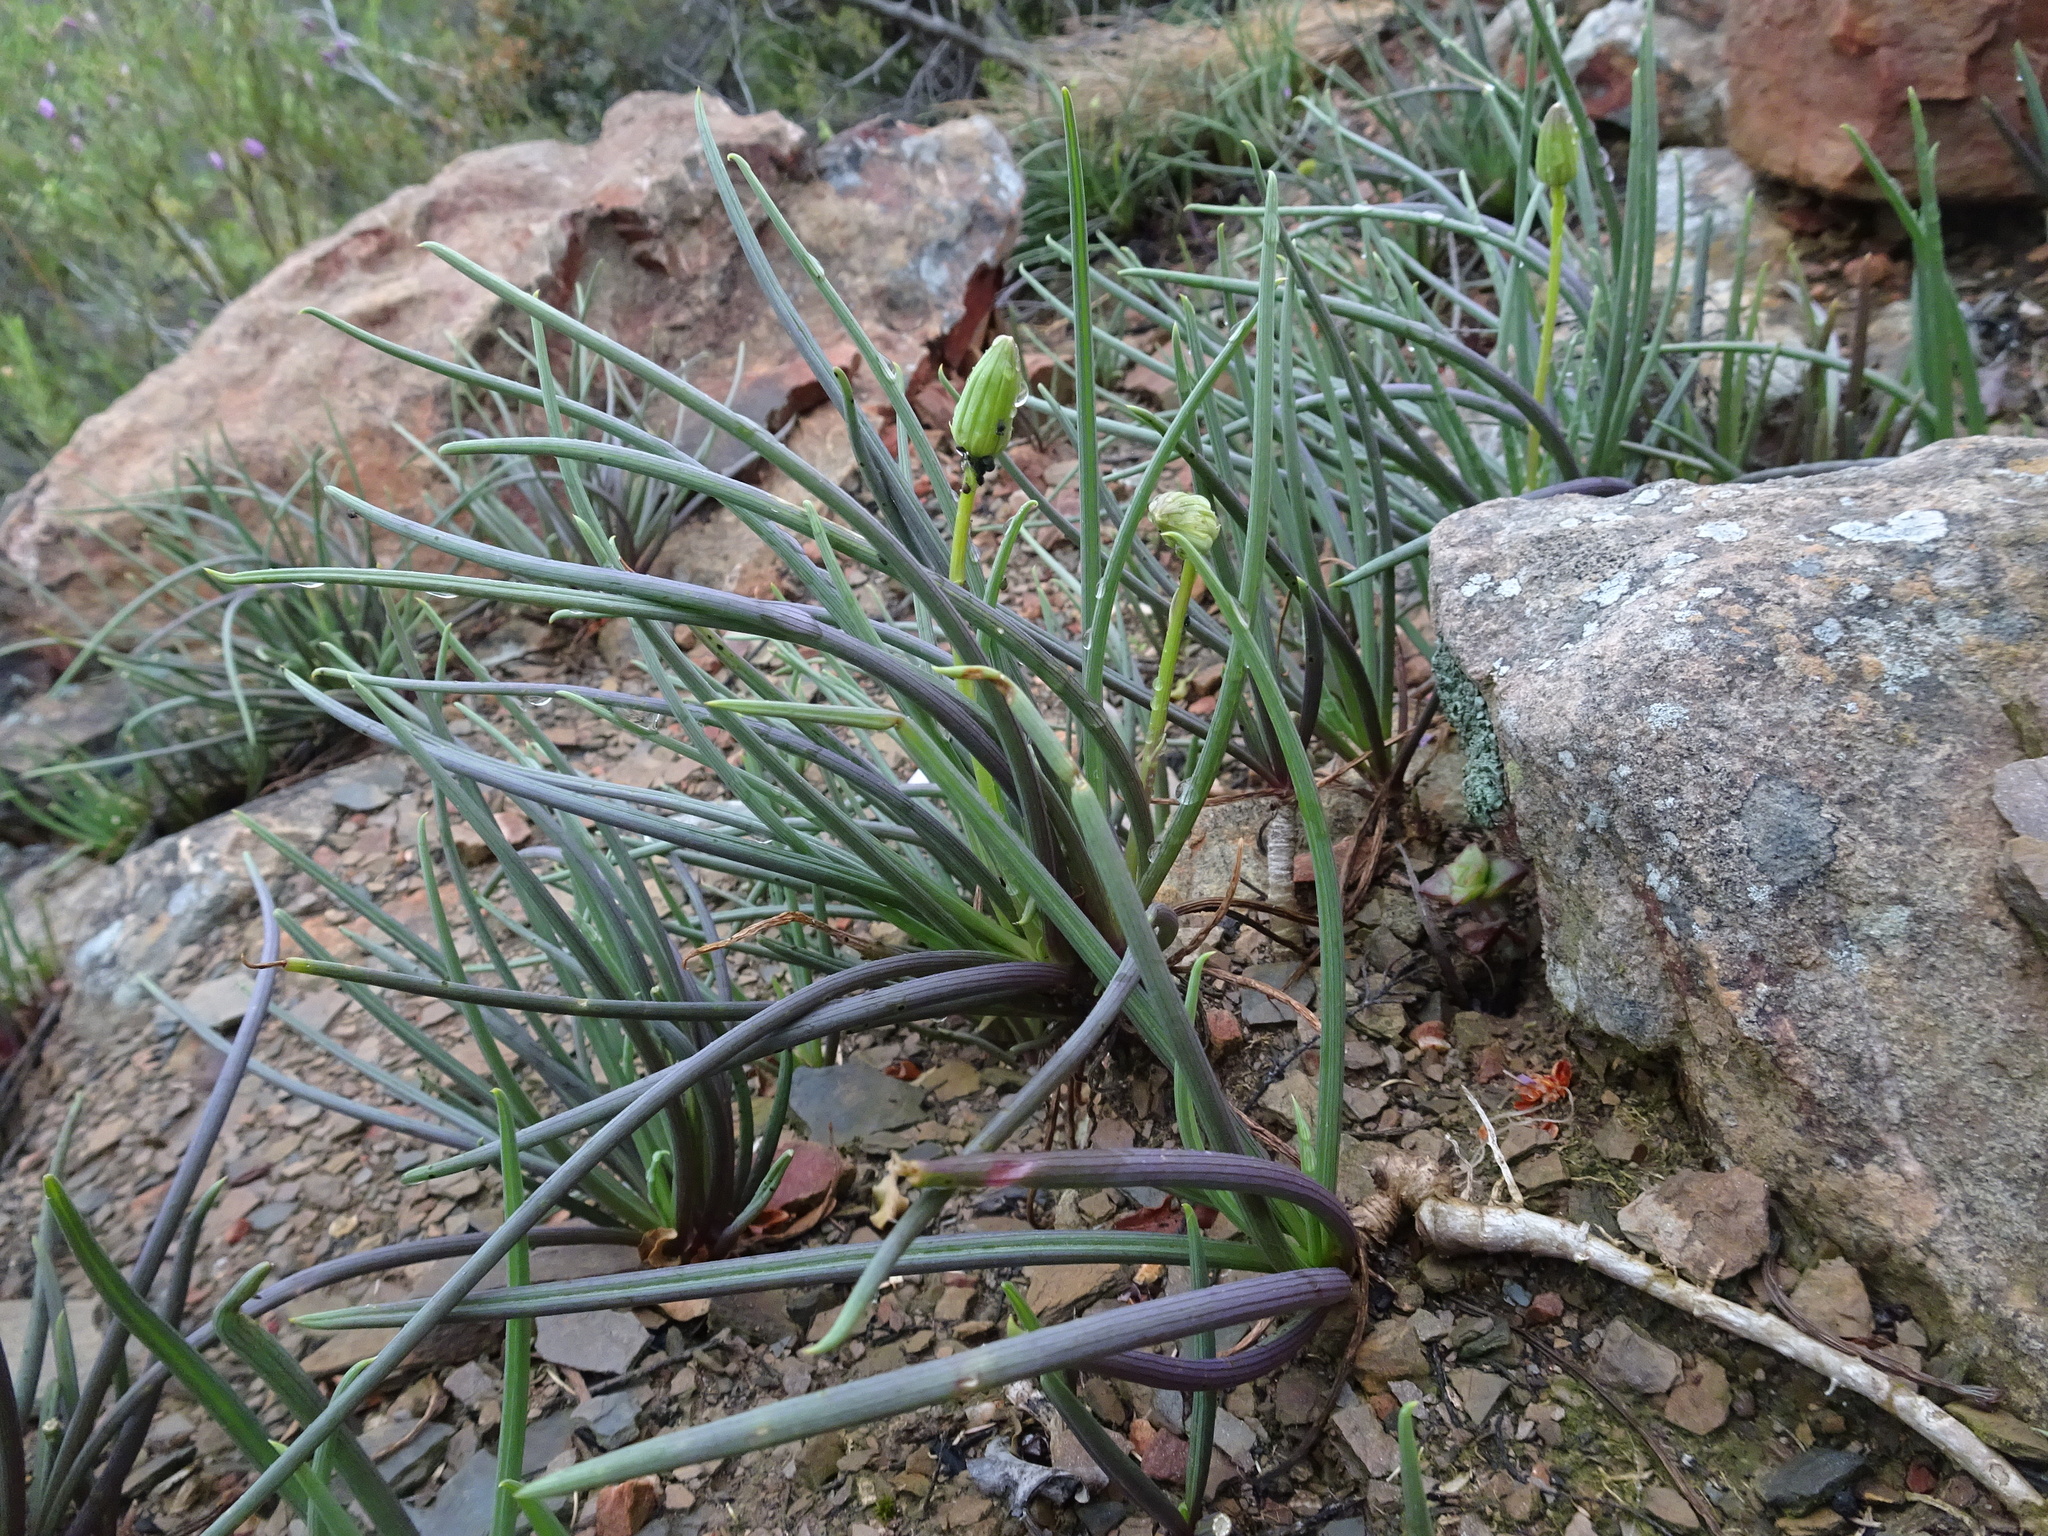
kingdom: Plantae
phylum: Tracheophyta
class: Magnoliopsida
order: Asterales
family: Asteraceae
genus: Curio
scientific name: Curio acaulis
